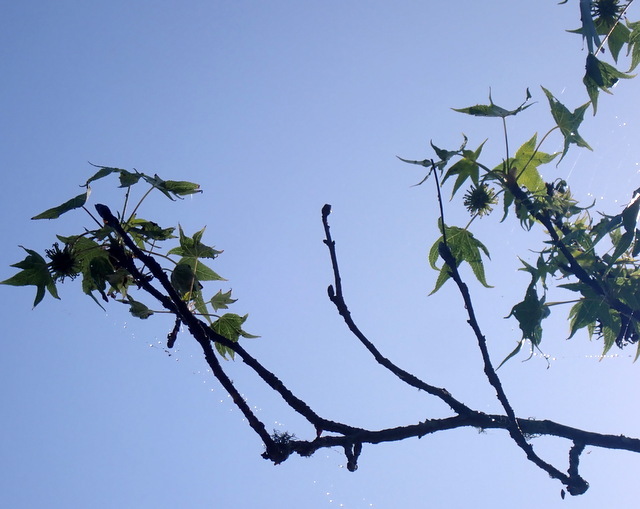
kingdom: Plantae
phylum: Tracheophyta
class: Magnoliopsida
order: Saxifragales
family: Altingiaceae
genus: Liquidambar
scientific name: Liquidambar styraciflua
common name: Sweet gum
